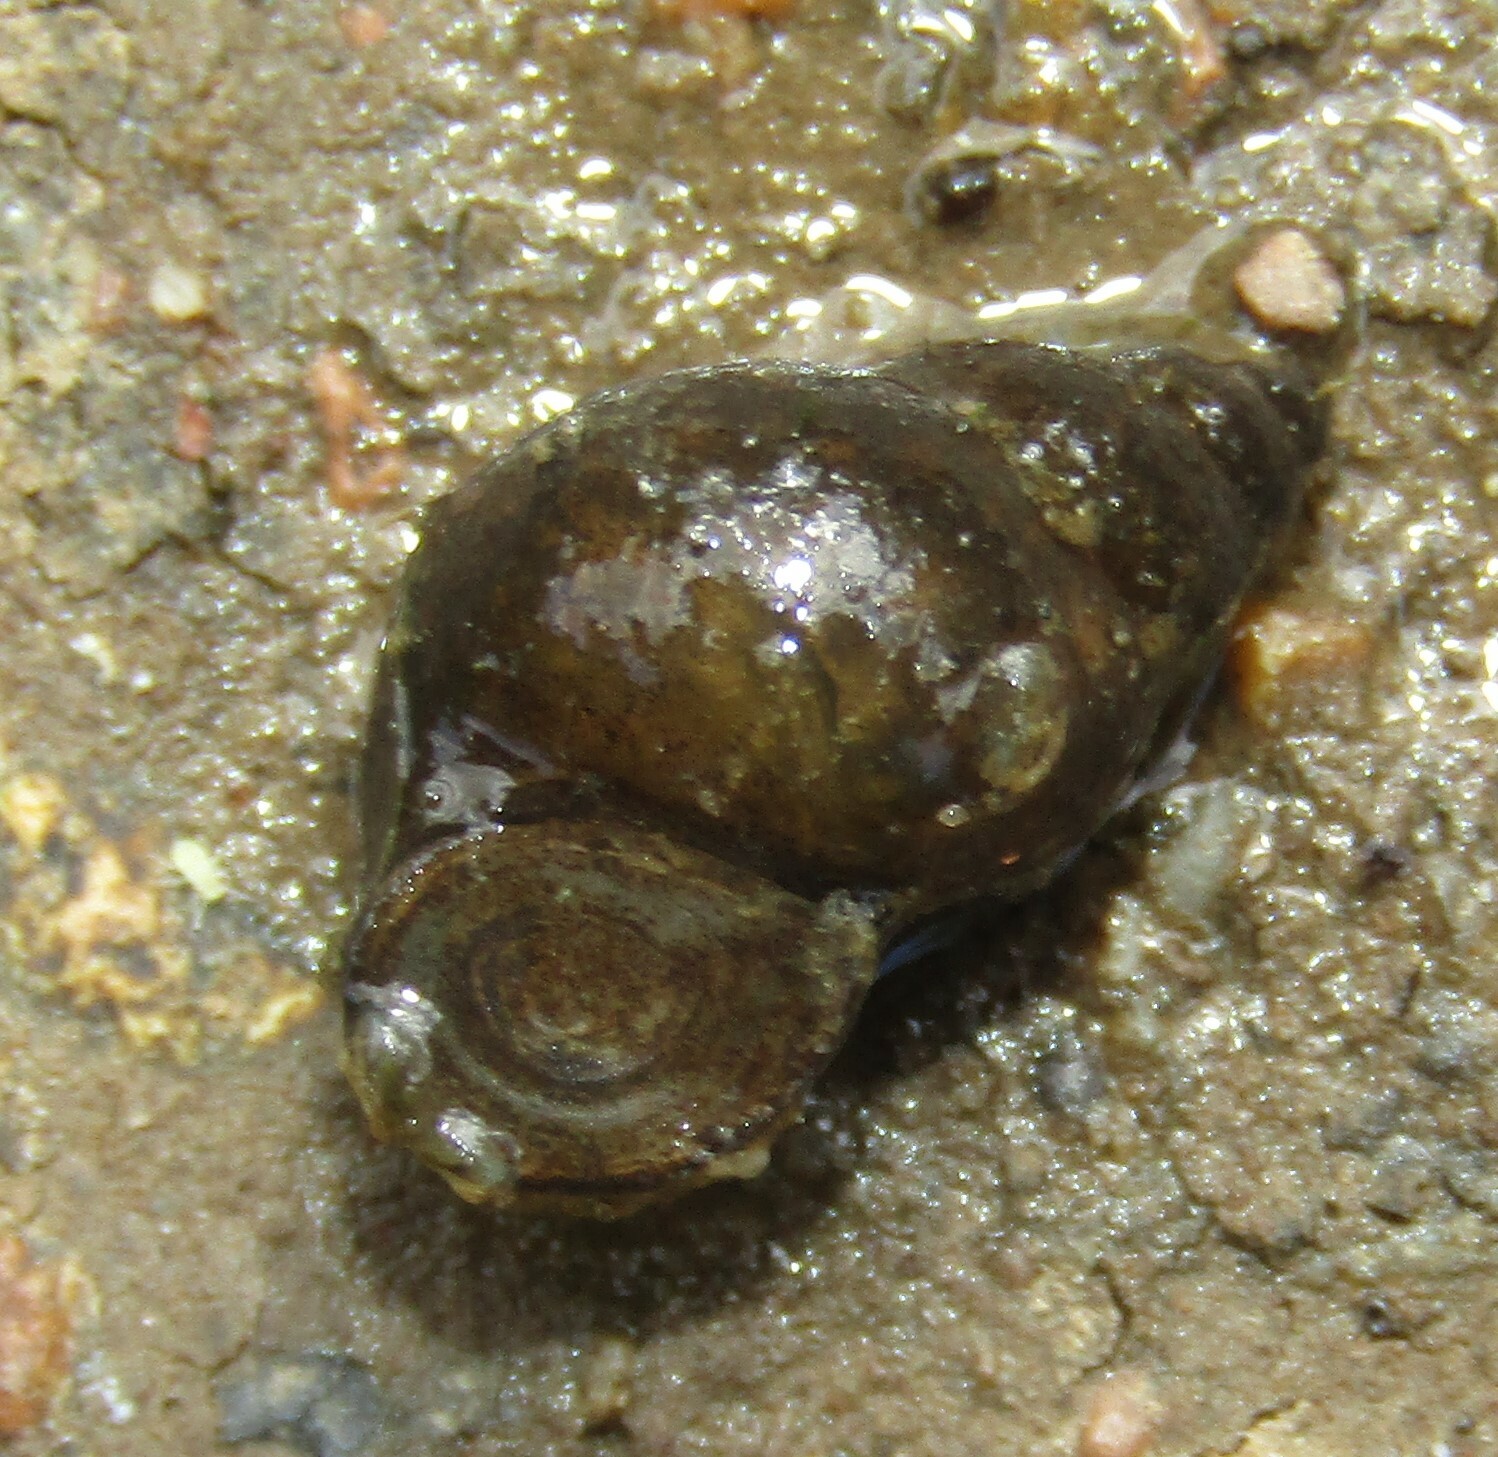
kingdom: Animalia
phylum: Mollusca
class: Gastropoda
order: Littorinimorpha
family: Bithyniidae
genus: Bithynia
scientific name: Bithynia tentaculata
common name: Common bithynia
